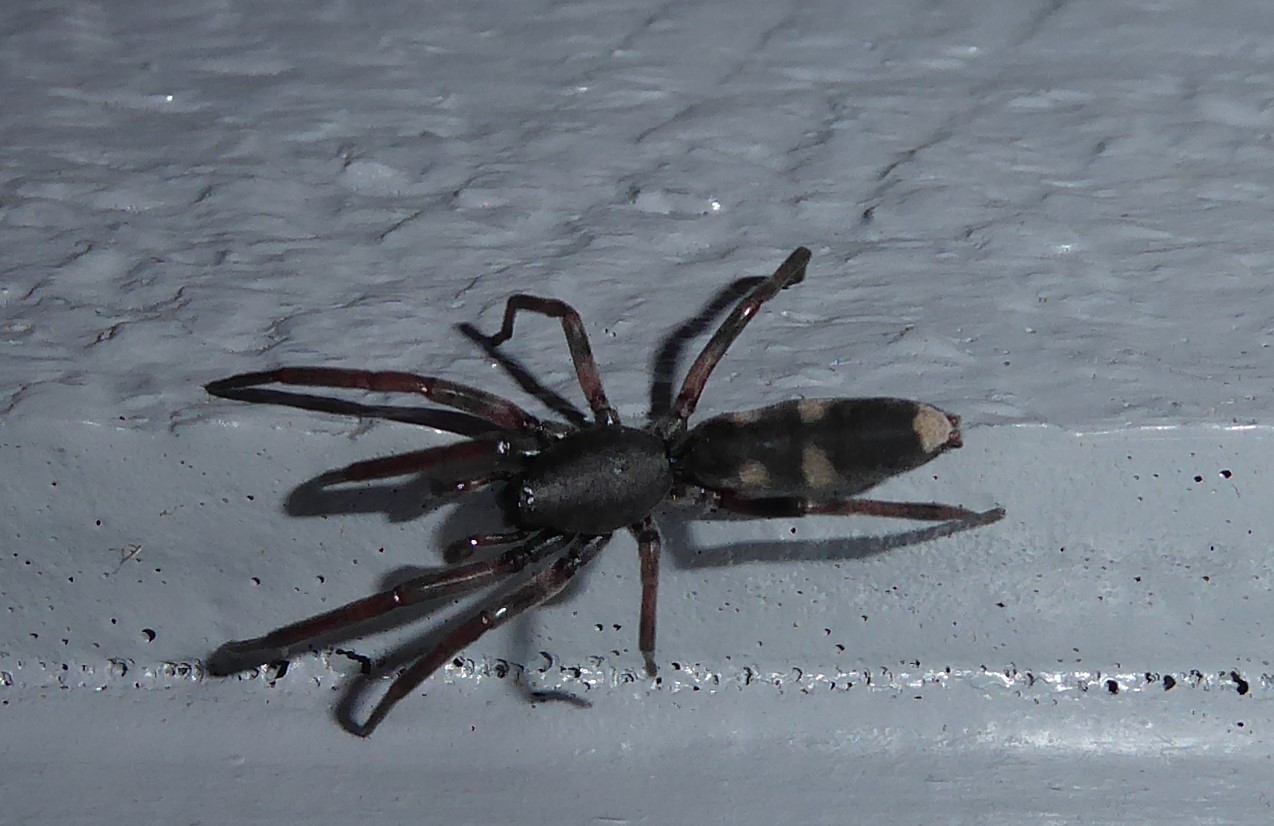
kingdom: Animalia
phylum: Arthropoda
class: Arachnida
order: Araneae
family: Lamponidae
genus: Lampona
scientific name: Lampona cylindrata
